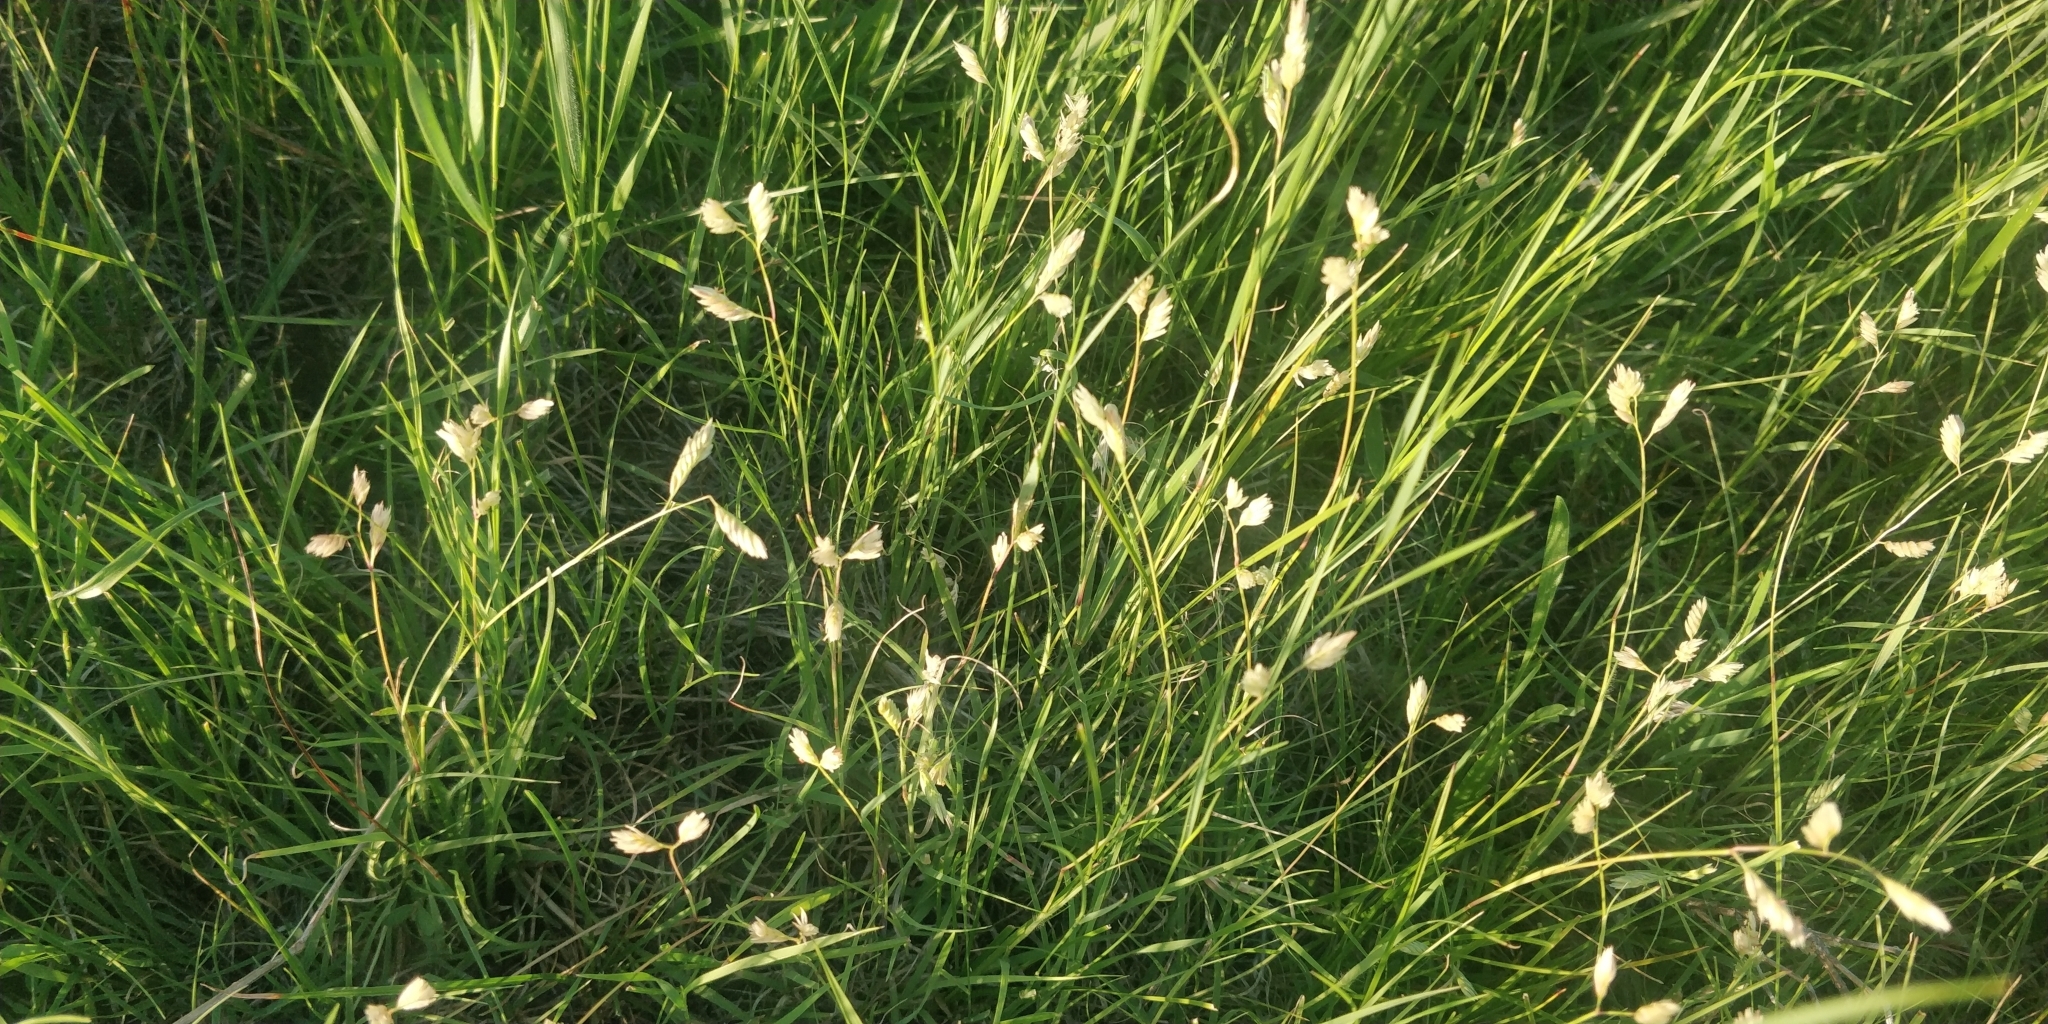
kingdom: Plantae
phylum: Tracheophyta
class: Liliopsida
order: Poales
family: Poaceae
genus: Bouteloua
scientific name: Bouteloua dactyloides
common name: Buffalo grass
